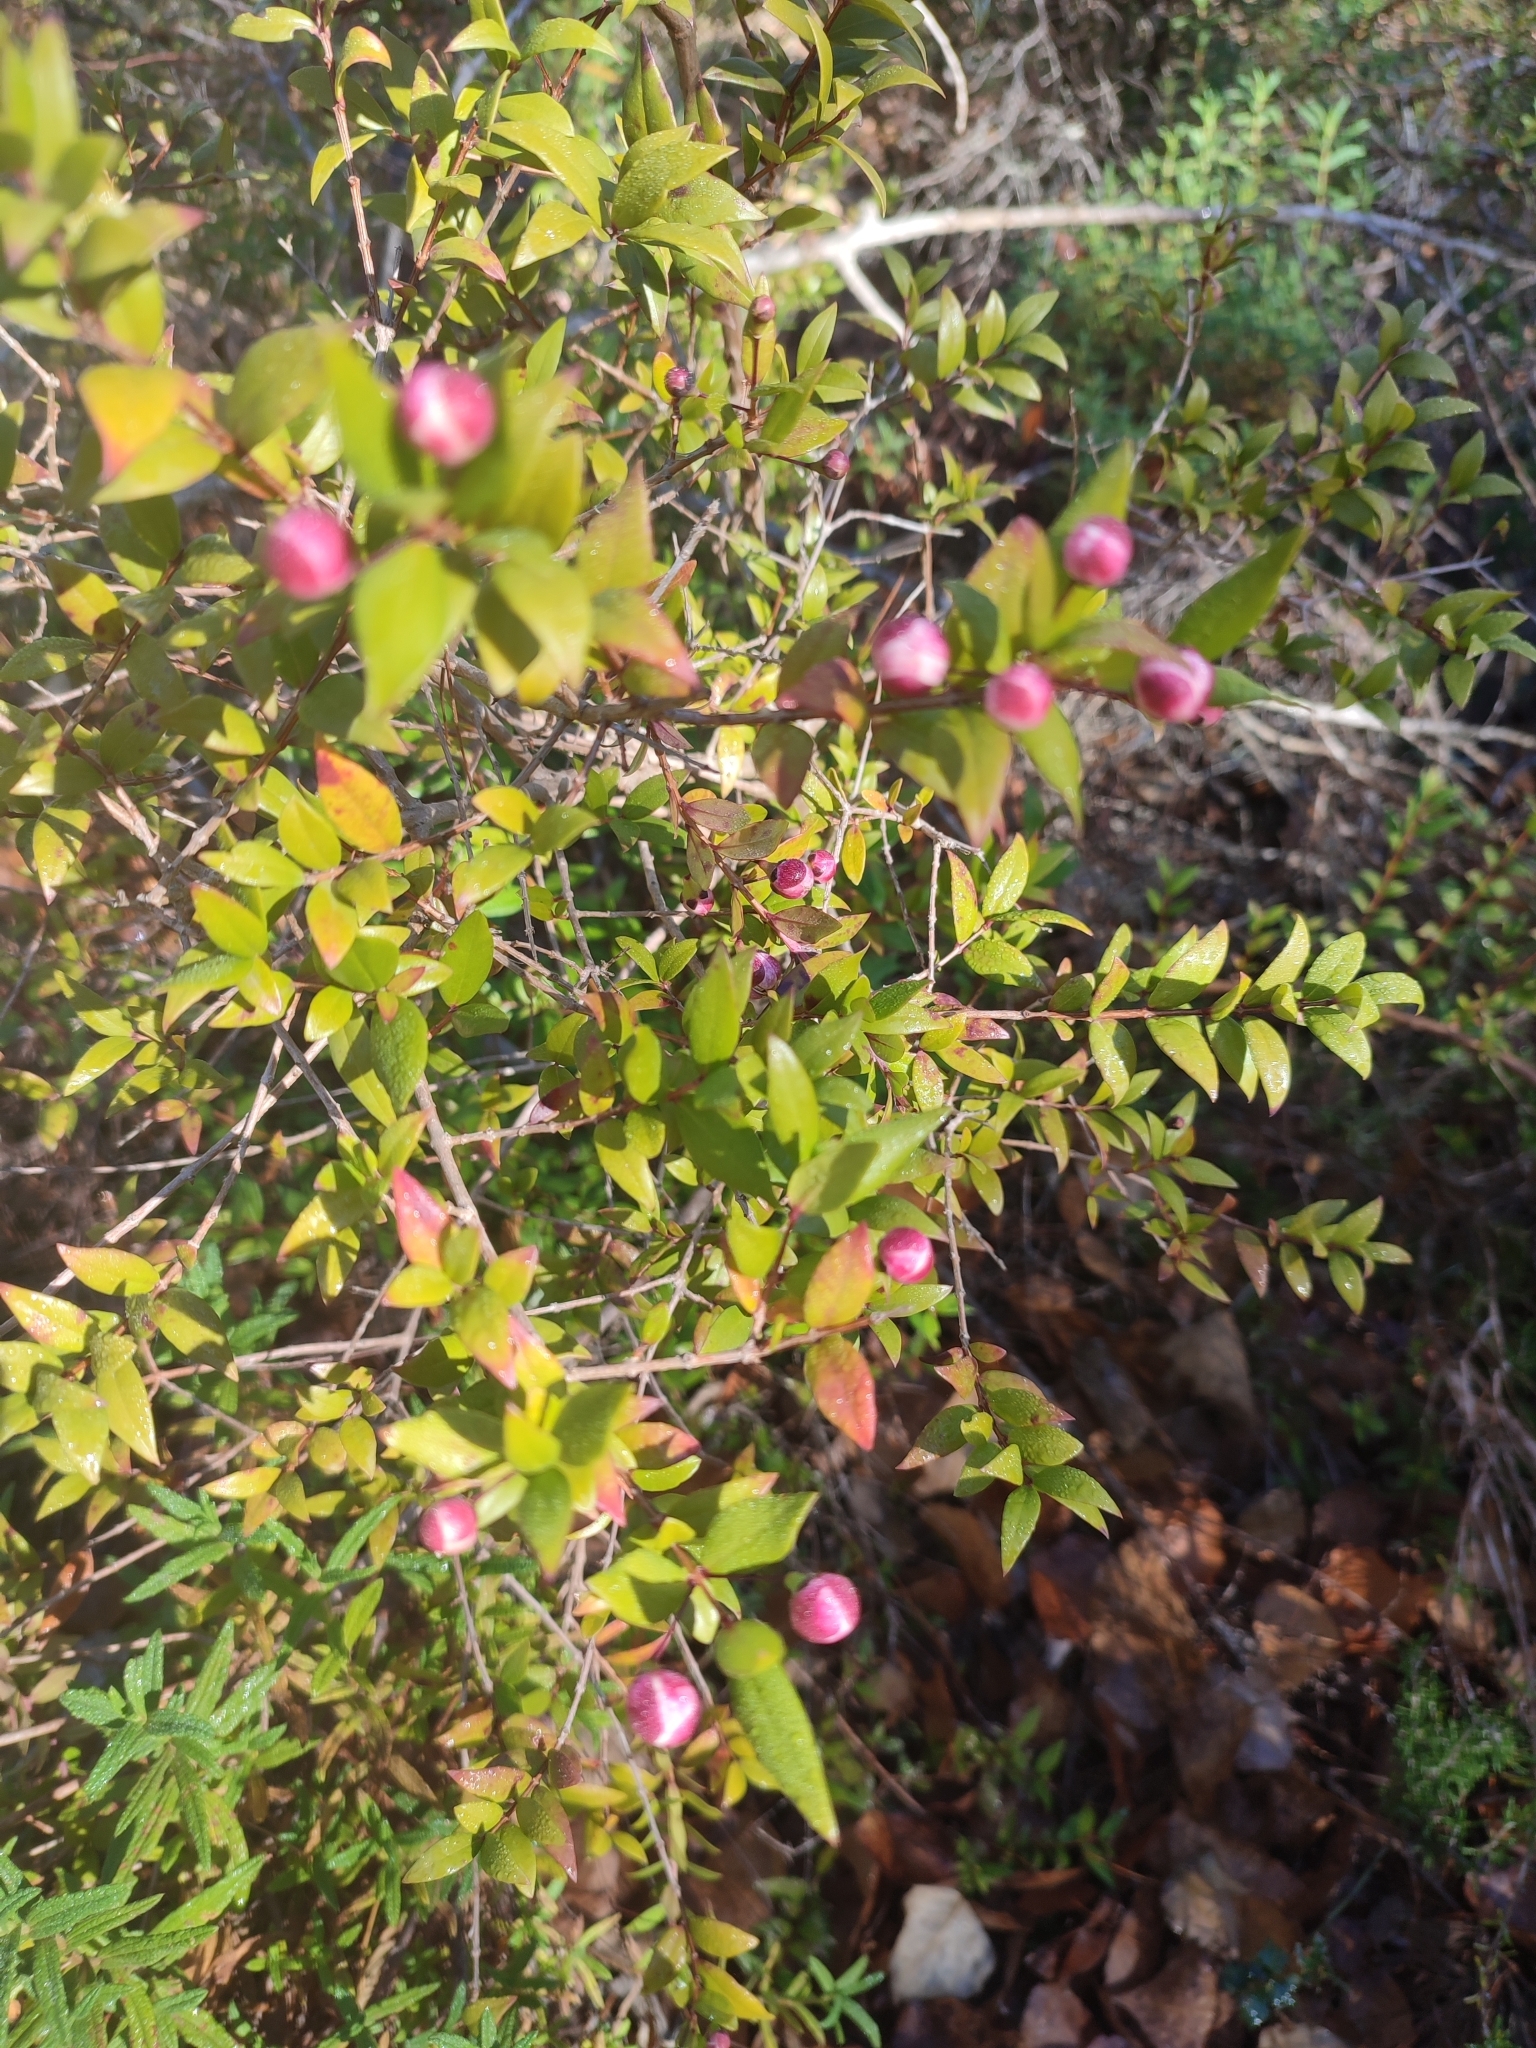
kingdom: Plantae
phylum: Tracheophyta
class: Magnoliopsida
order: Myrtales
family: Myrtaceae
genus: Myrtus
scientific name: Myrtus communis
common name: Myrtle
